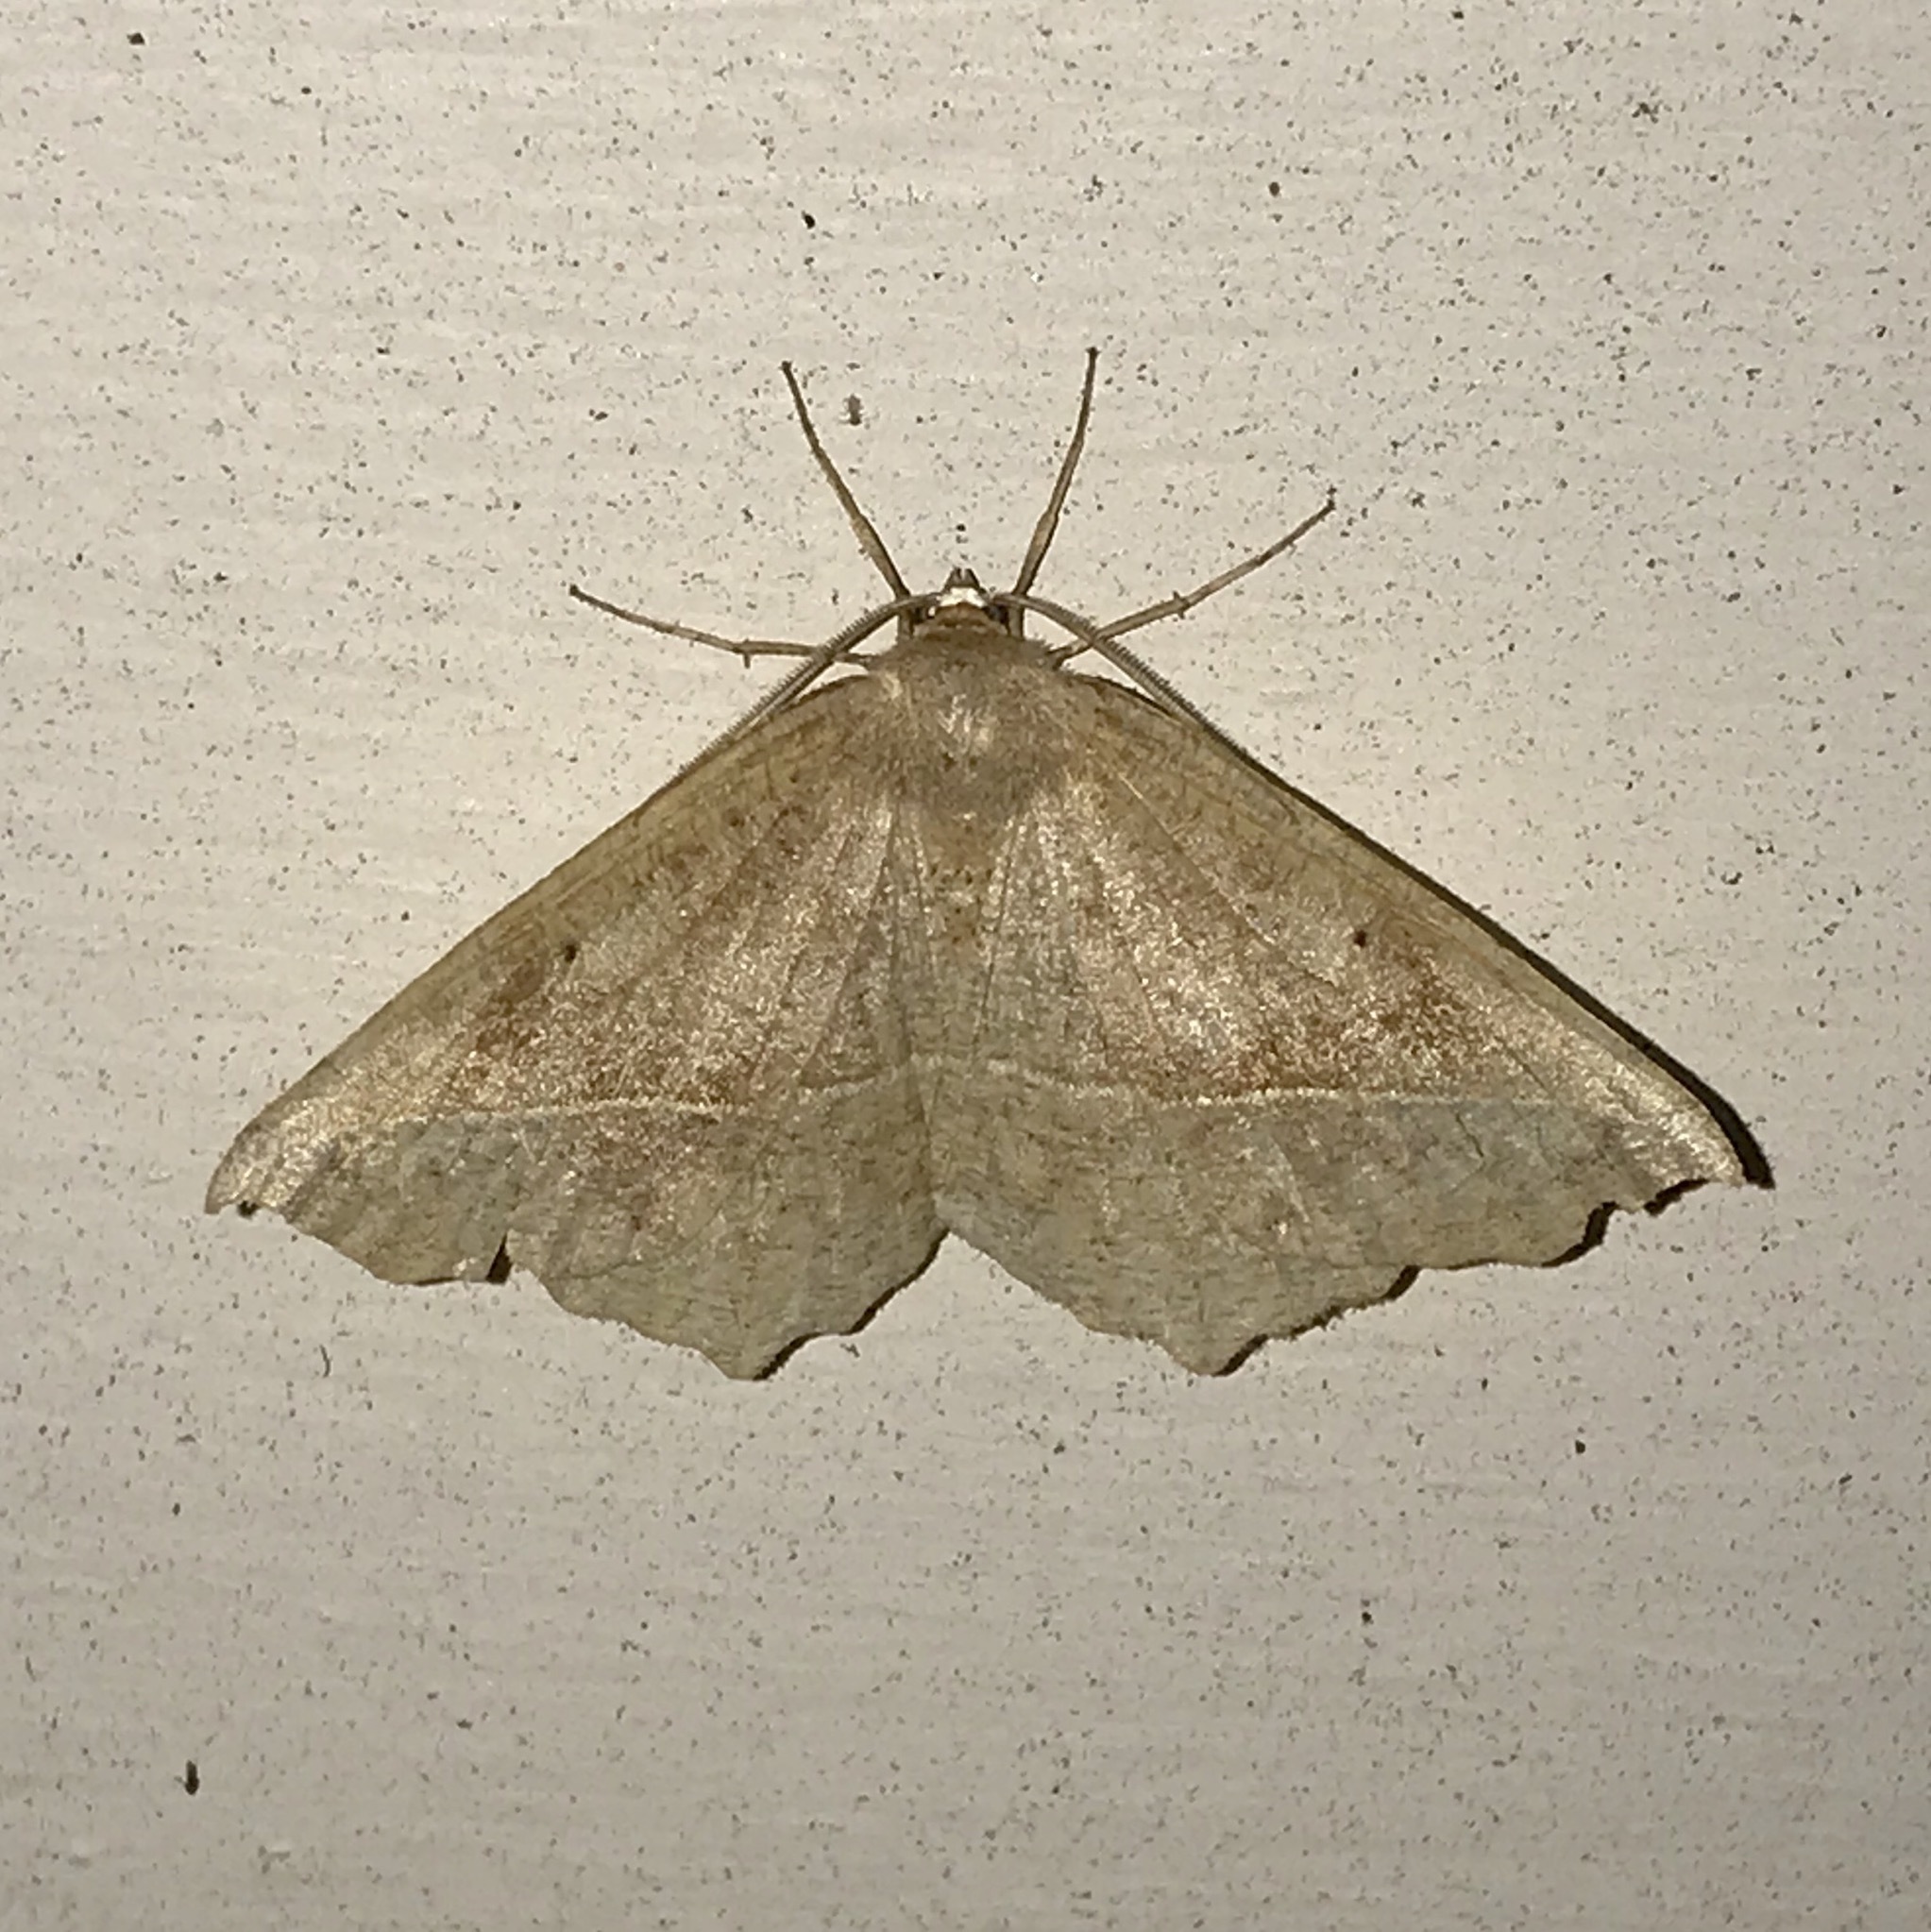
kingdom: Animalia
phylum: Arthropoda
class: Insecta
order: Lepidoptera
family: Geometridae
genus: Eutrapela
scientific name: Eutrapela clemataria
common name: Curved-toothed geometer
